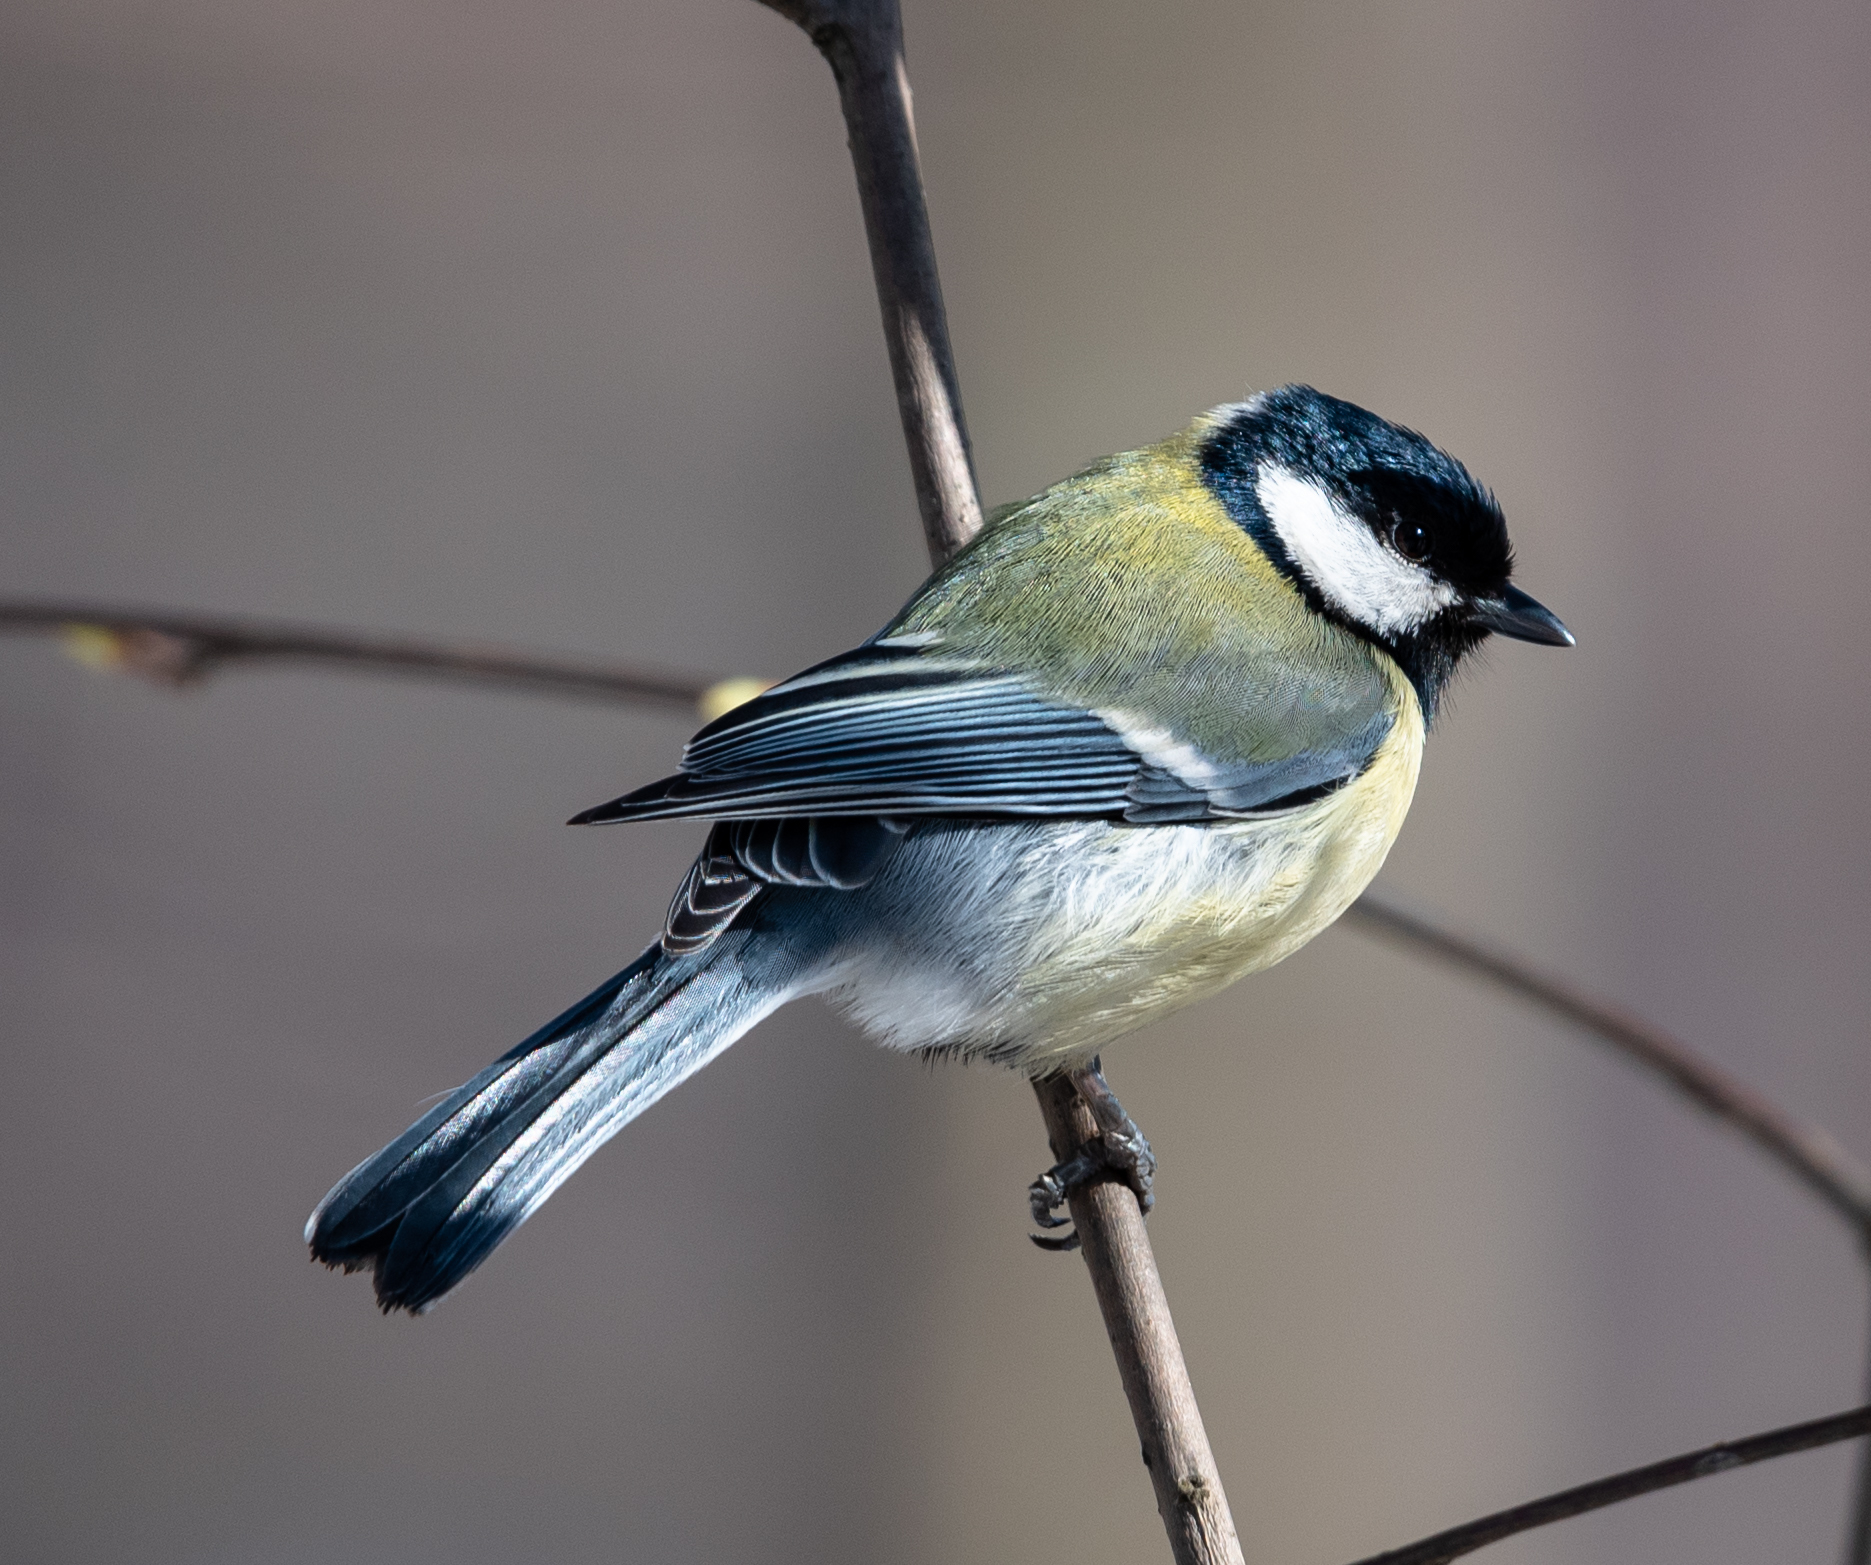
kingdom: Animalia
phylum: Chordata
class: Aves
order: Passeriformes
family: Paridae
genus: Parus
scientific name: Parus major
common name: Great tit
